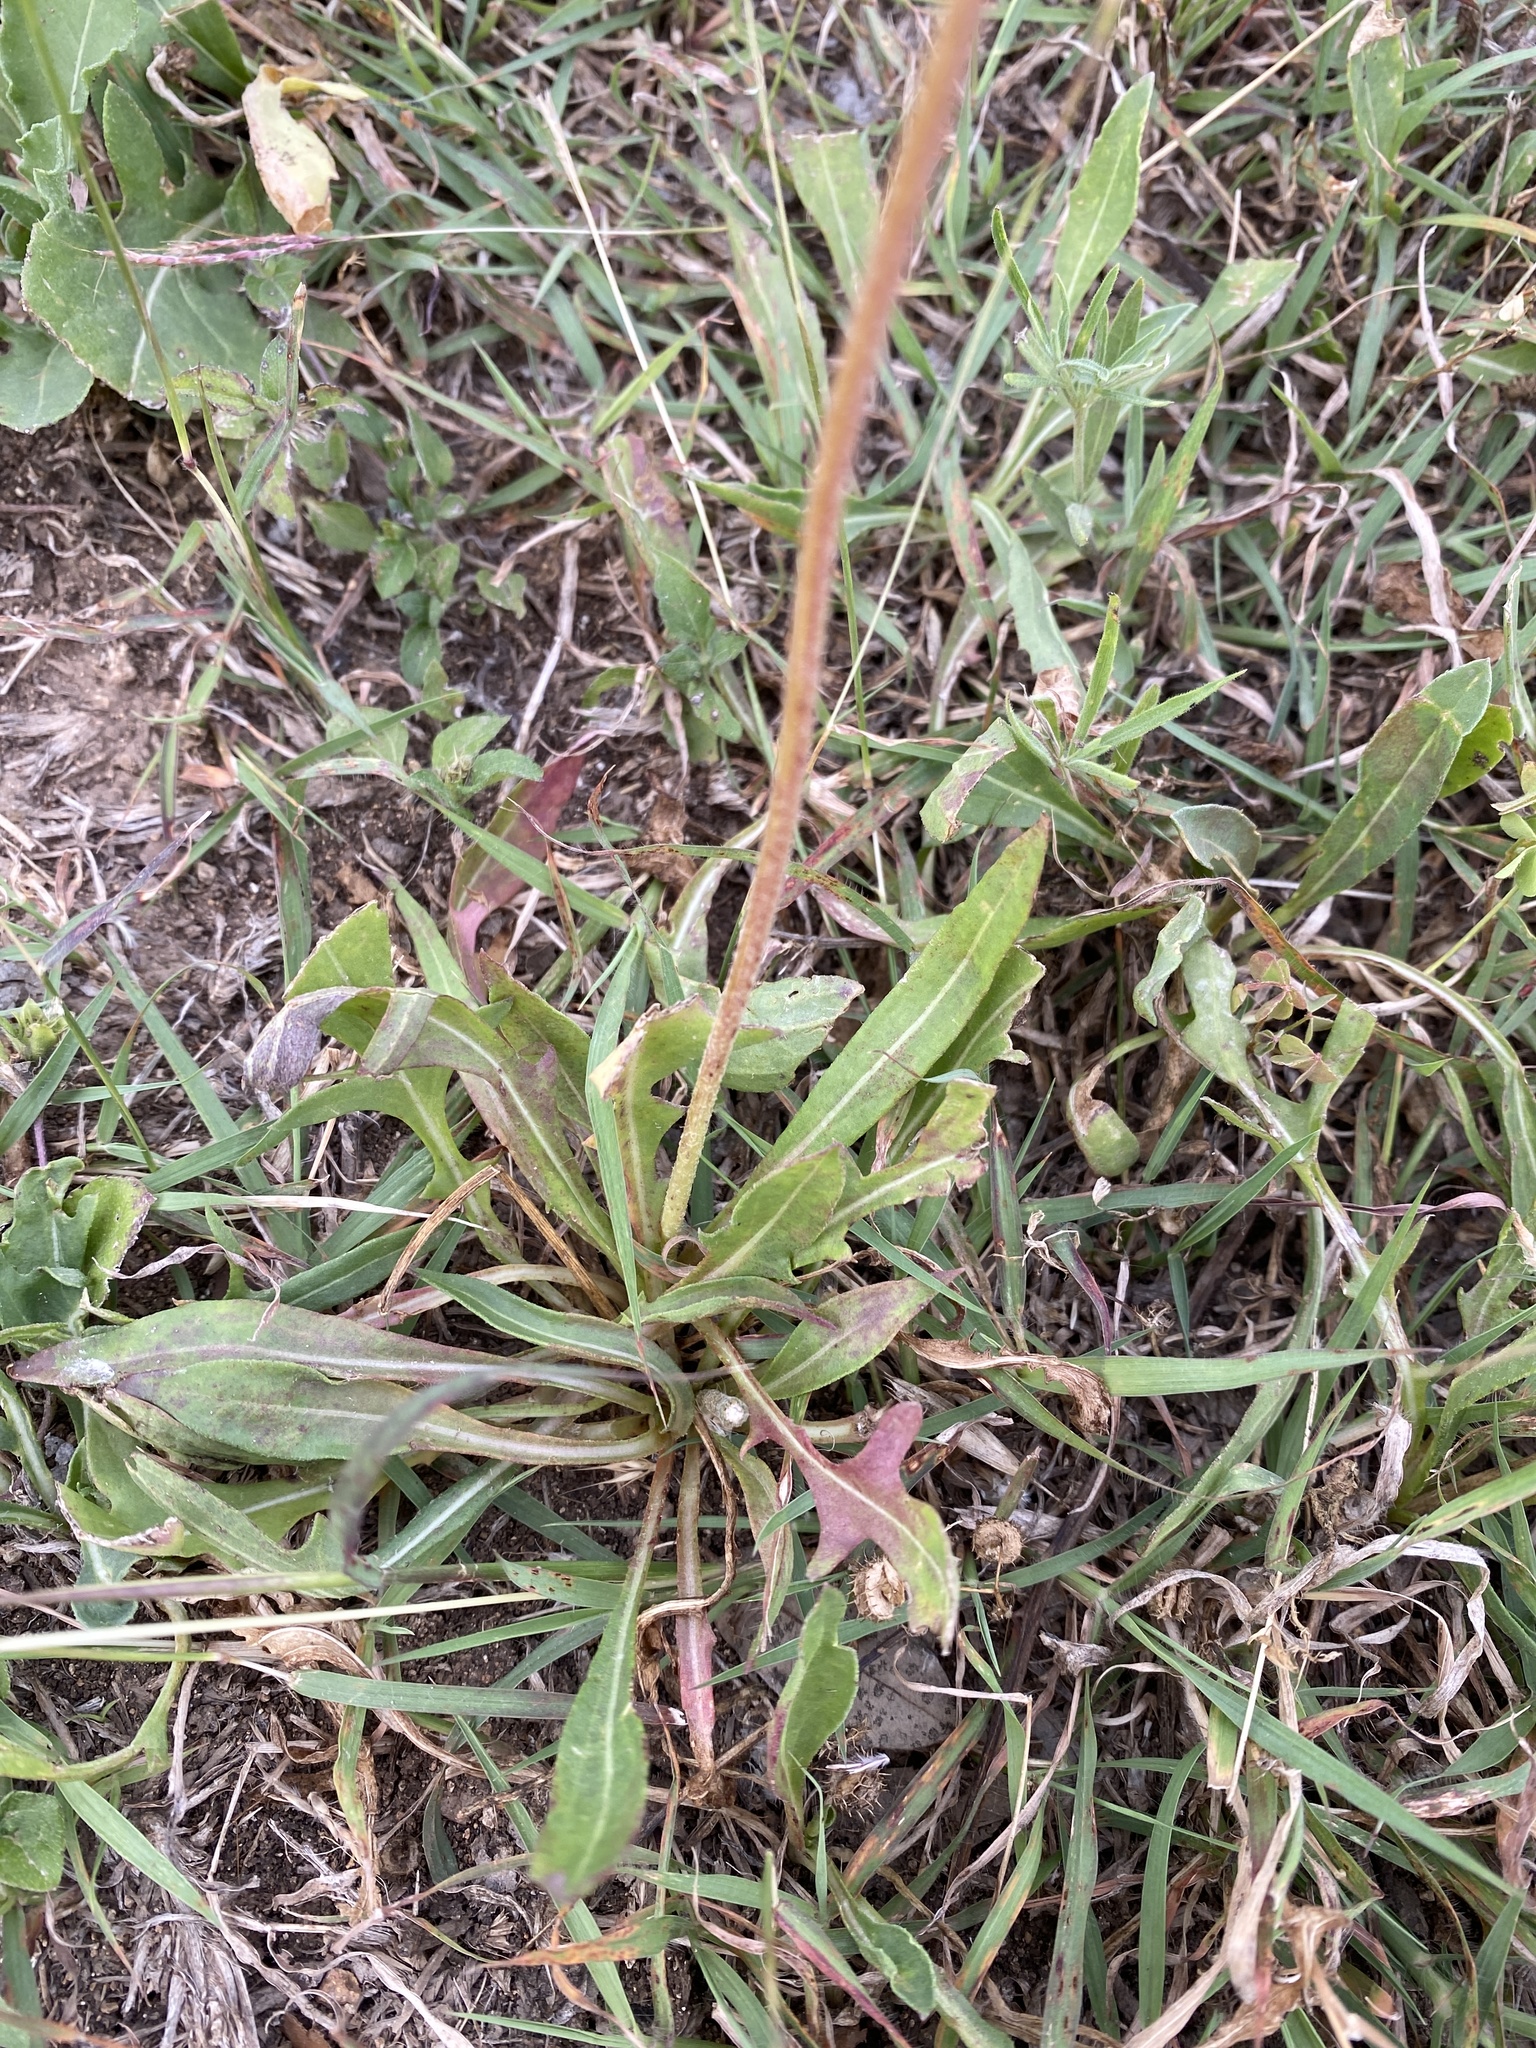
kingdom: Plantae
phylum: Tracheophyta
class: Magnoliopsida
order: Asterales
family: Asteraceae
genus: Gaillardia
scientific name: Gaillardia suavis
